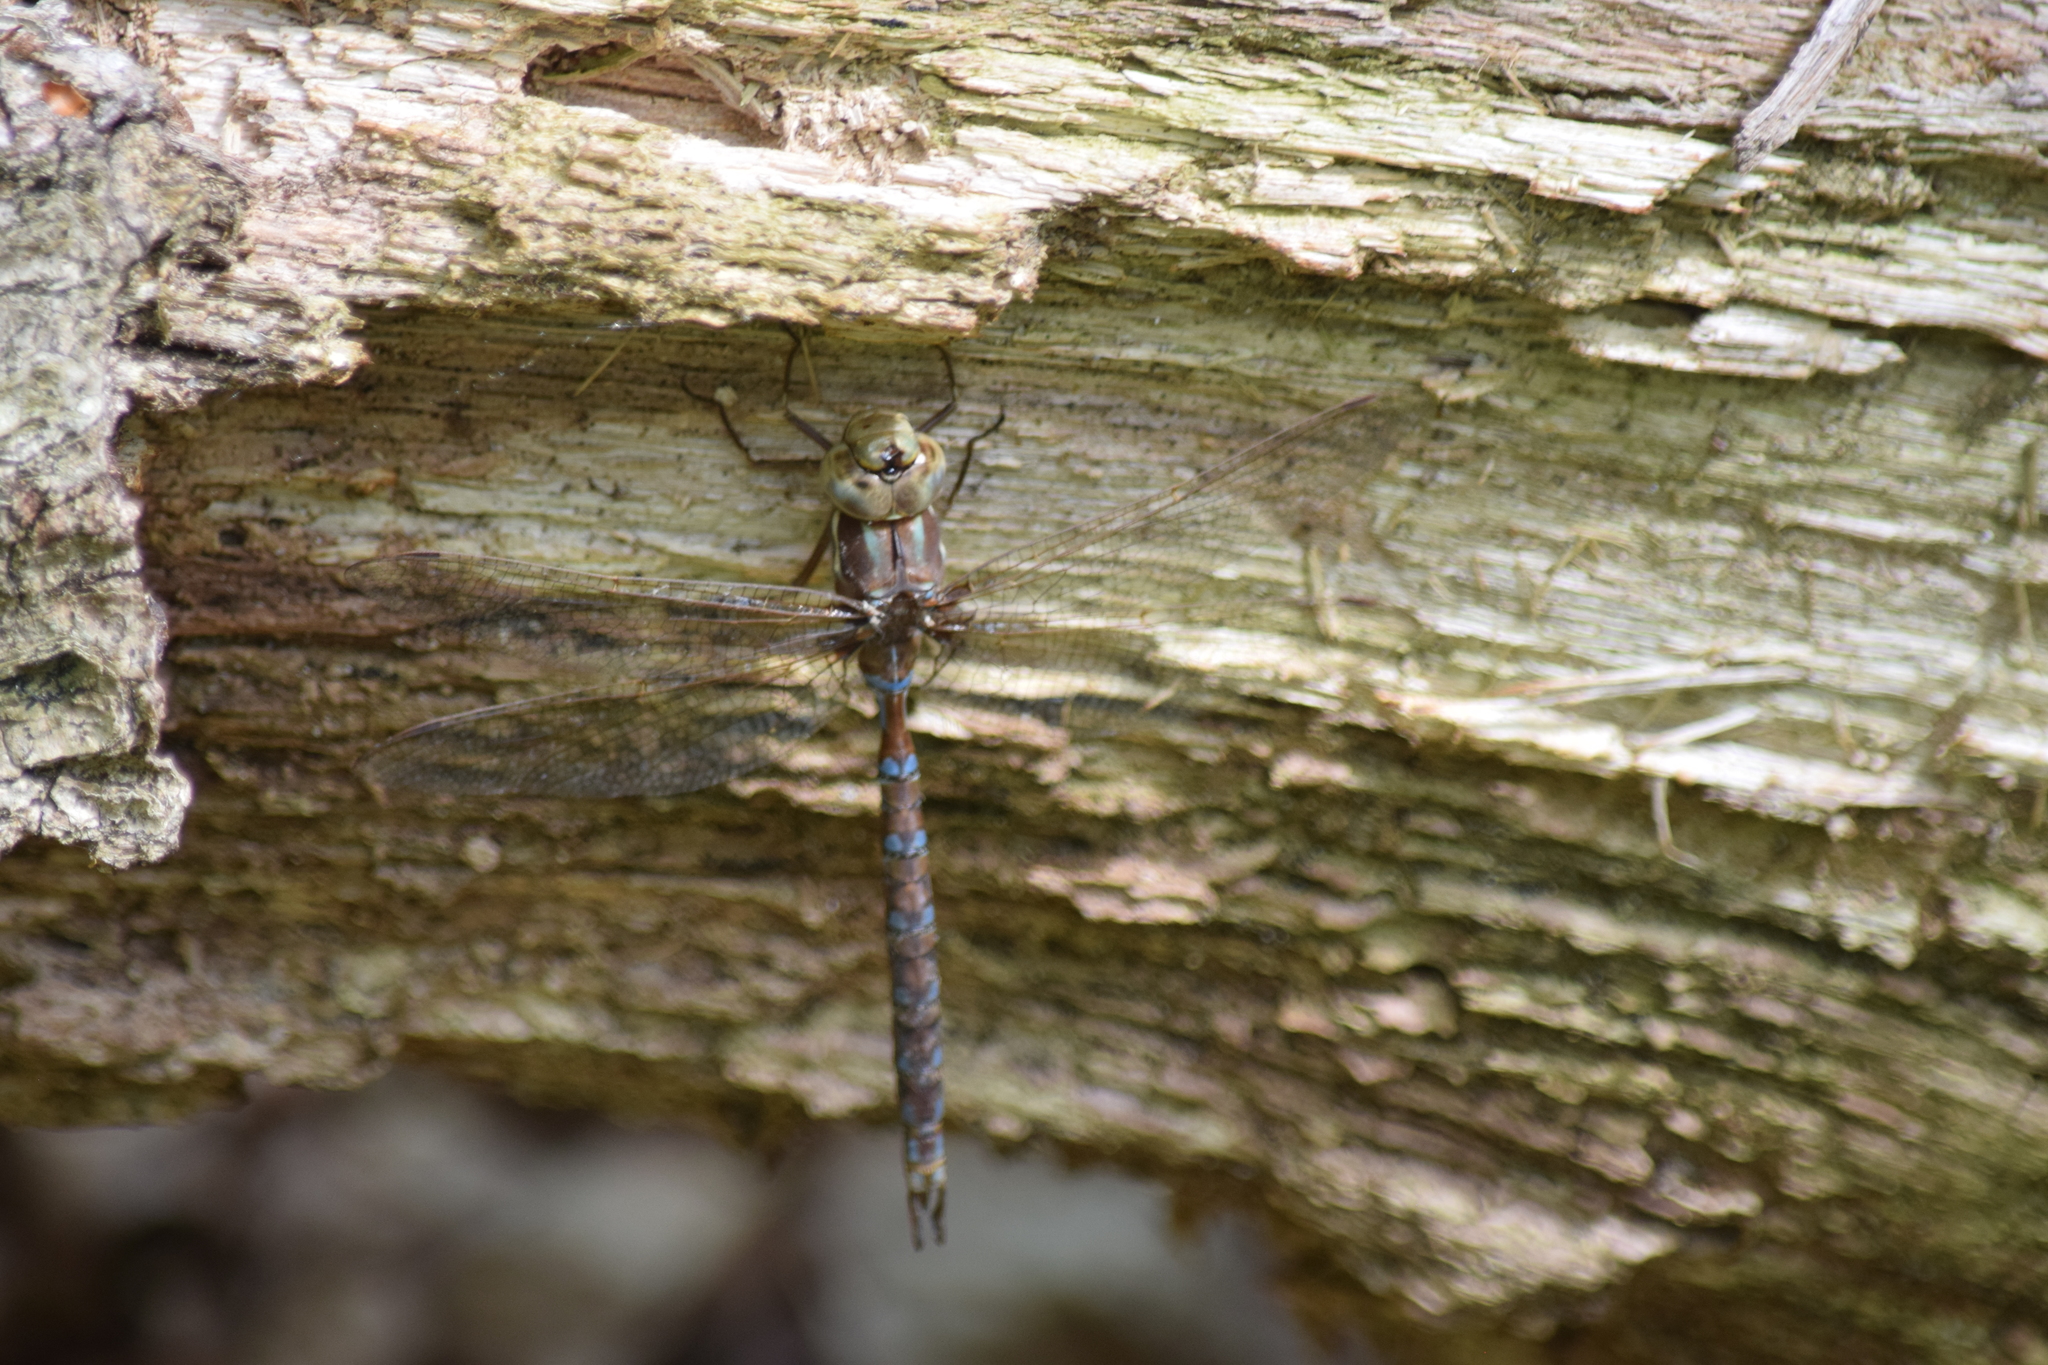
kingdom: Animalia
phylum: Arthropoda
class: Insecta
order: Odonata
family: Aeshnidae
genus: Basiaeschna
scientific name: Basiaeschna janata
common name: Springtime darner
